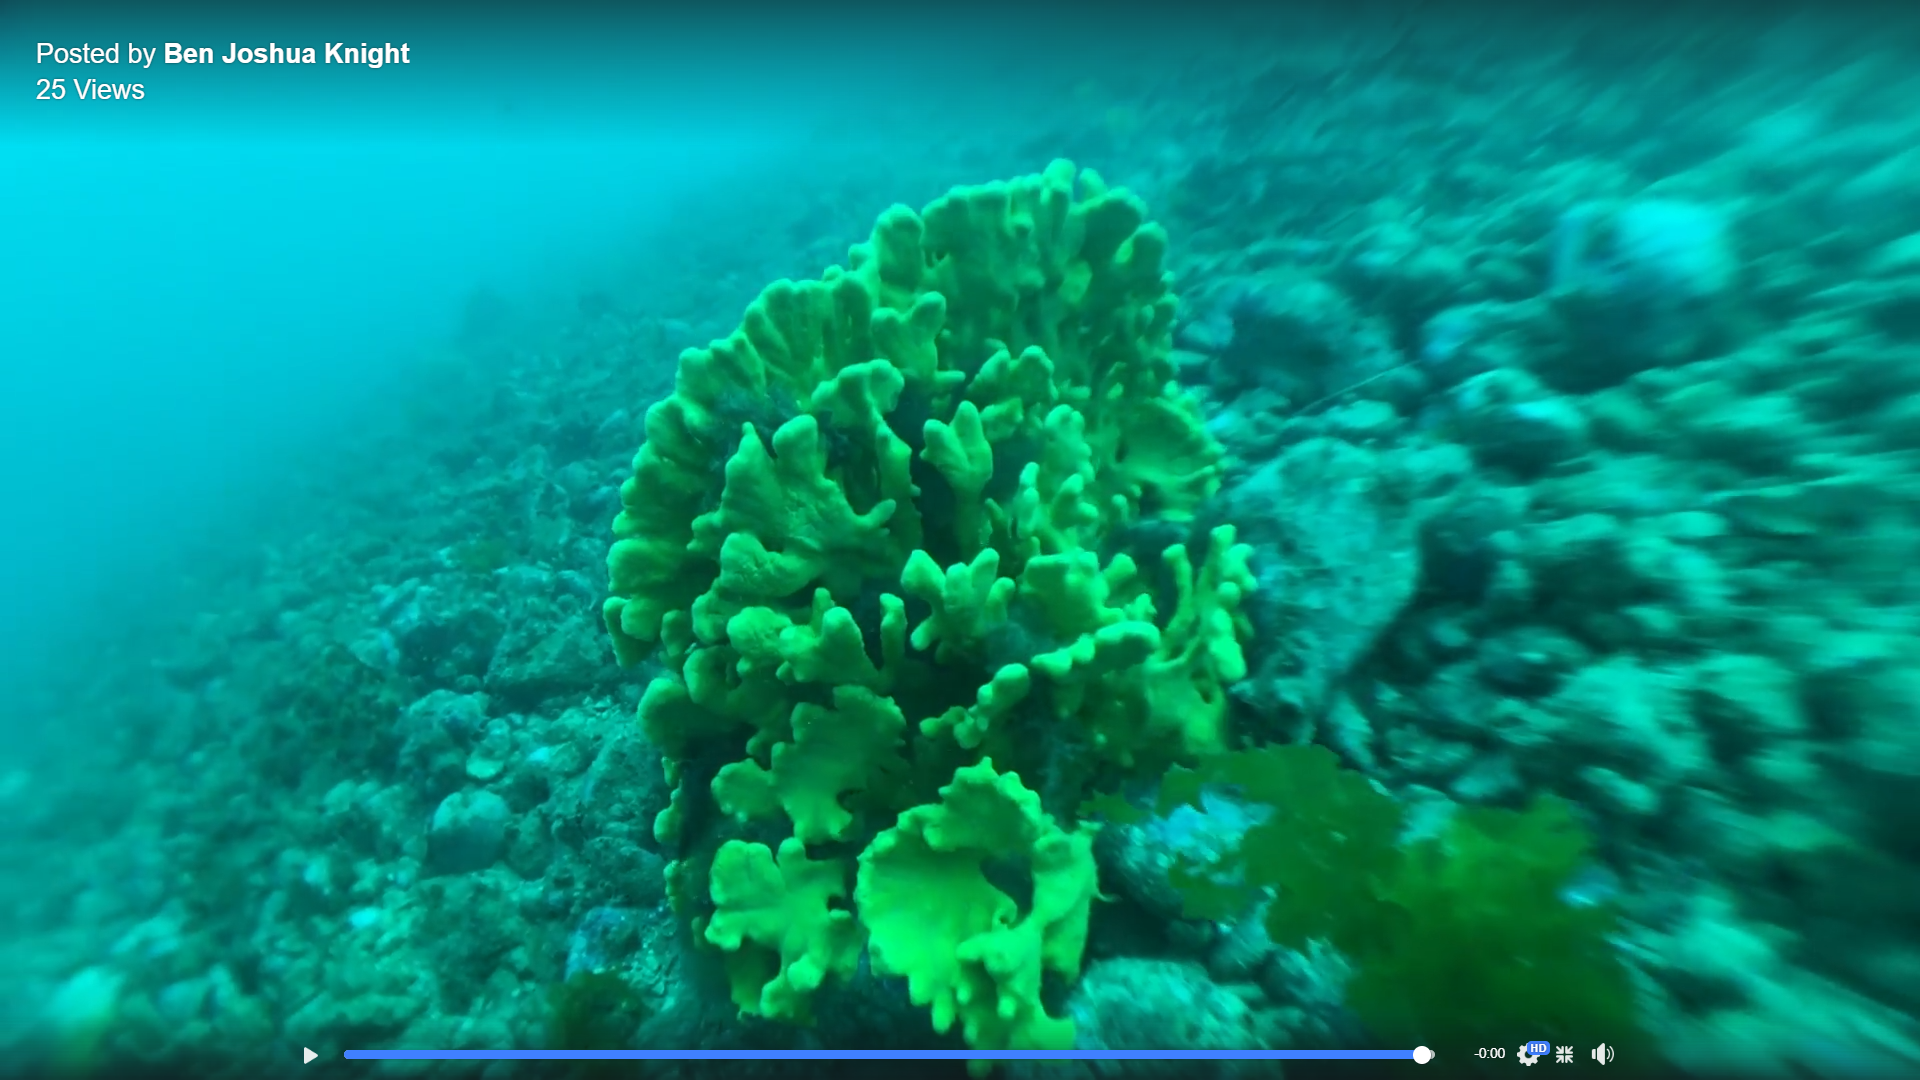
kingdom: Animalia
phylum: Porifera
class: Demospongiae
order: Poecilosclerida
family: Acarnidae
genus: Iophon
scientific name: Iophon minor
